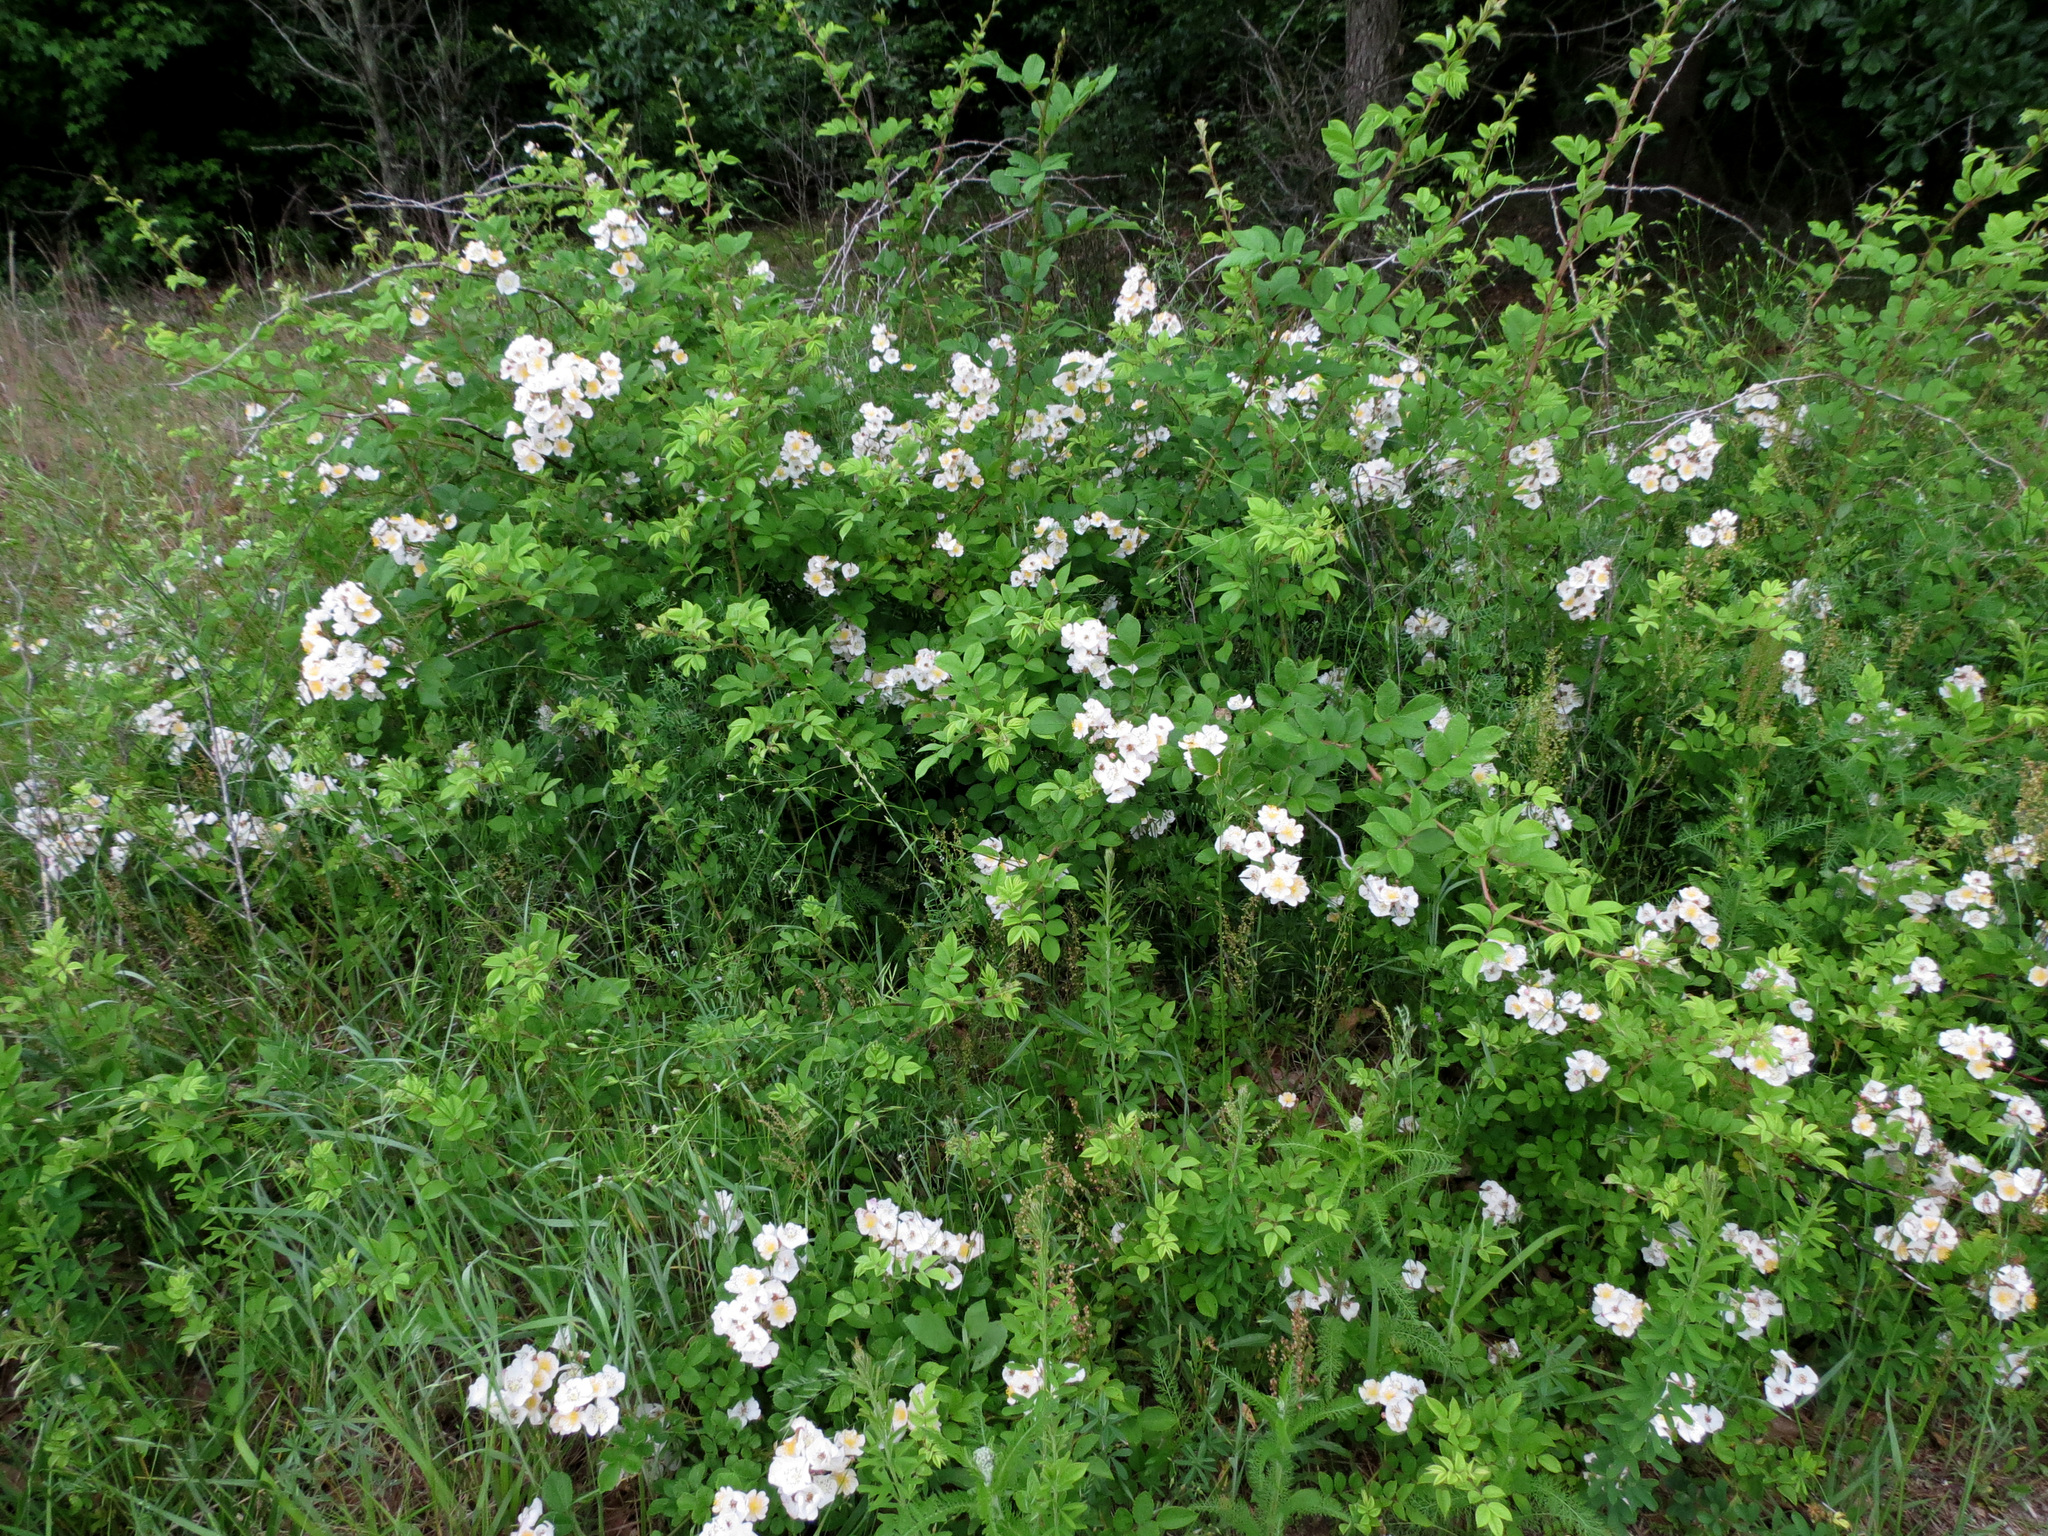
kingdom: Plantae
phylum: Tracheophyta
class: Magnoliopsida
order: Rosales
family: Rosaceae
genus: Rosa
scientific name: Rosa multiflora
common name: Multiflora rose
